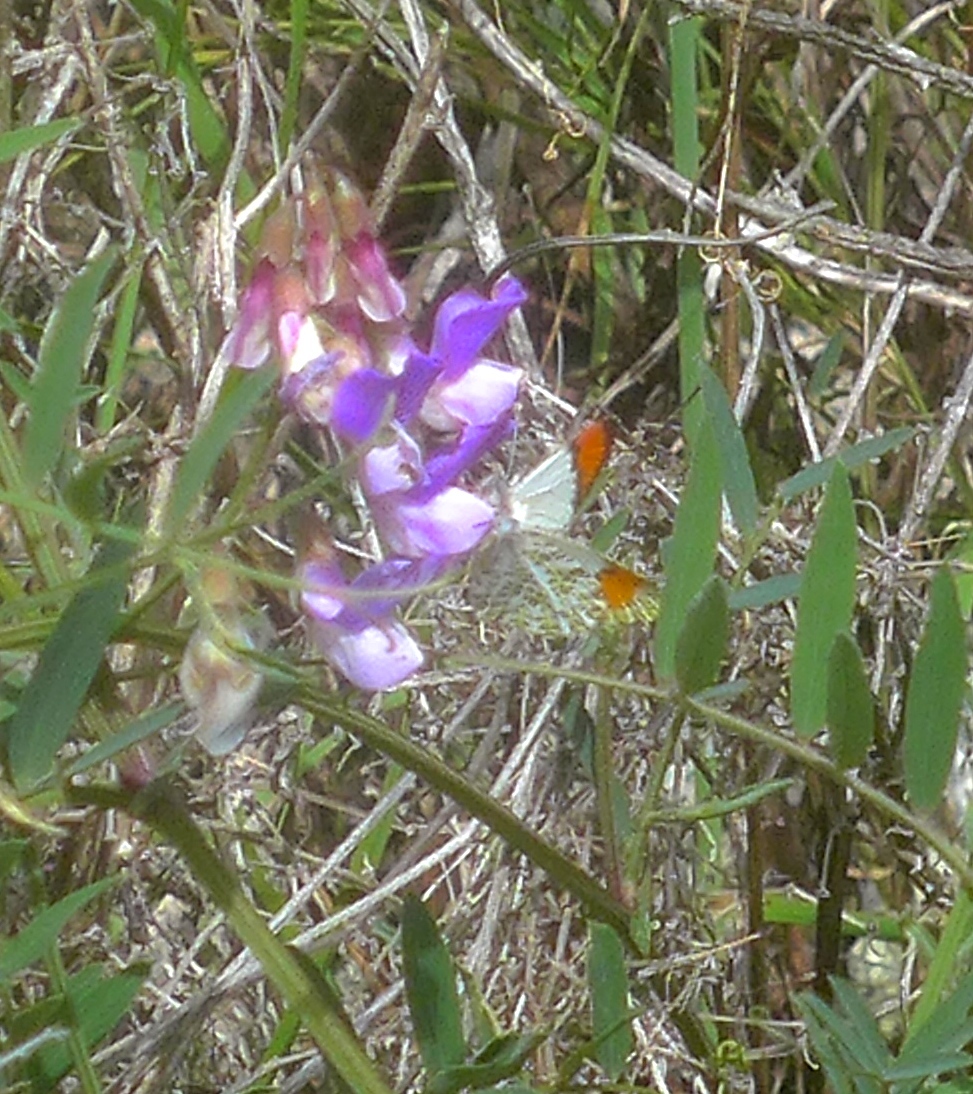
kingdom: Animalia
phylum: Arthropoda
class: Insecta
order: Lepidoptera
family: Pieridae
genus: Anthocharis
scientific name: Anthocharis sara
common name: Sara's orangetip
